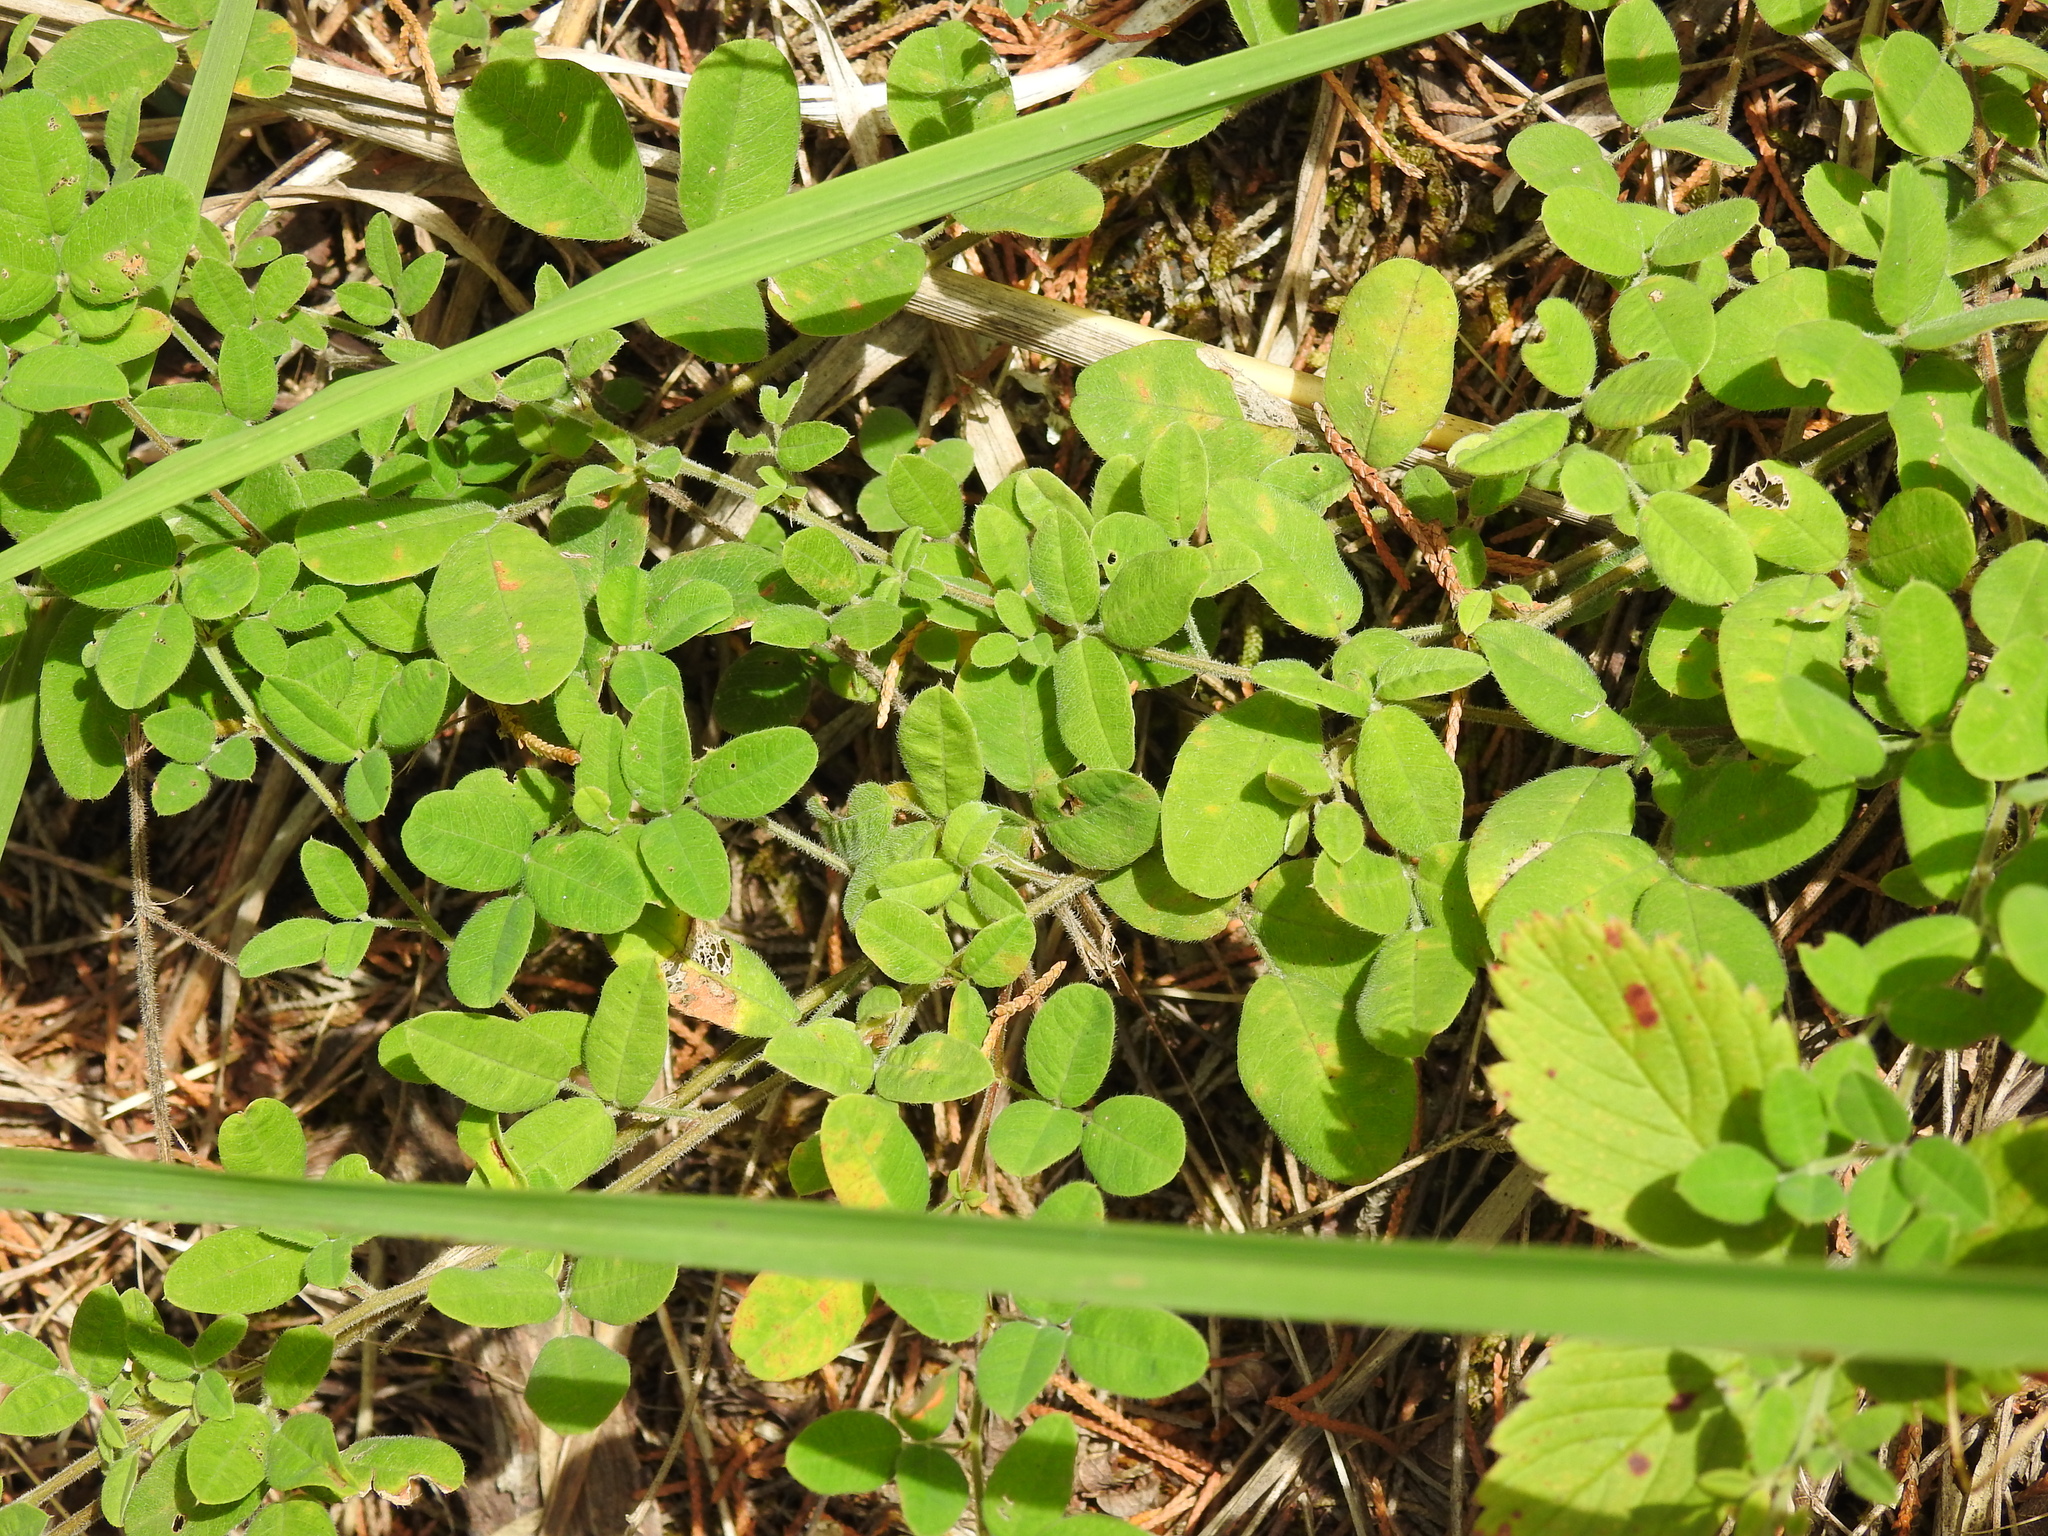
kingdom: Plantae
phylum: Tracheophyta
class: Magnoliopsida
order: Fabales
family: Fabaceae
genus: Lespedeza
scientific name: Lespedeza procumbens
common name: Downy trailing bush-clover
